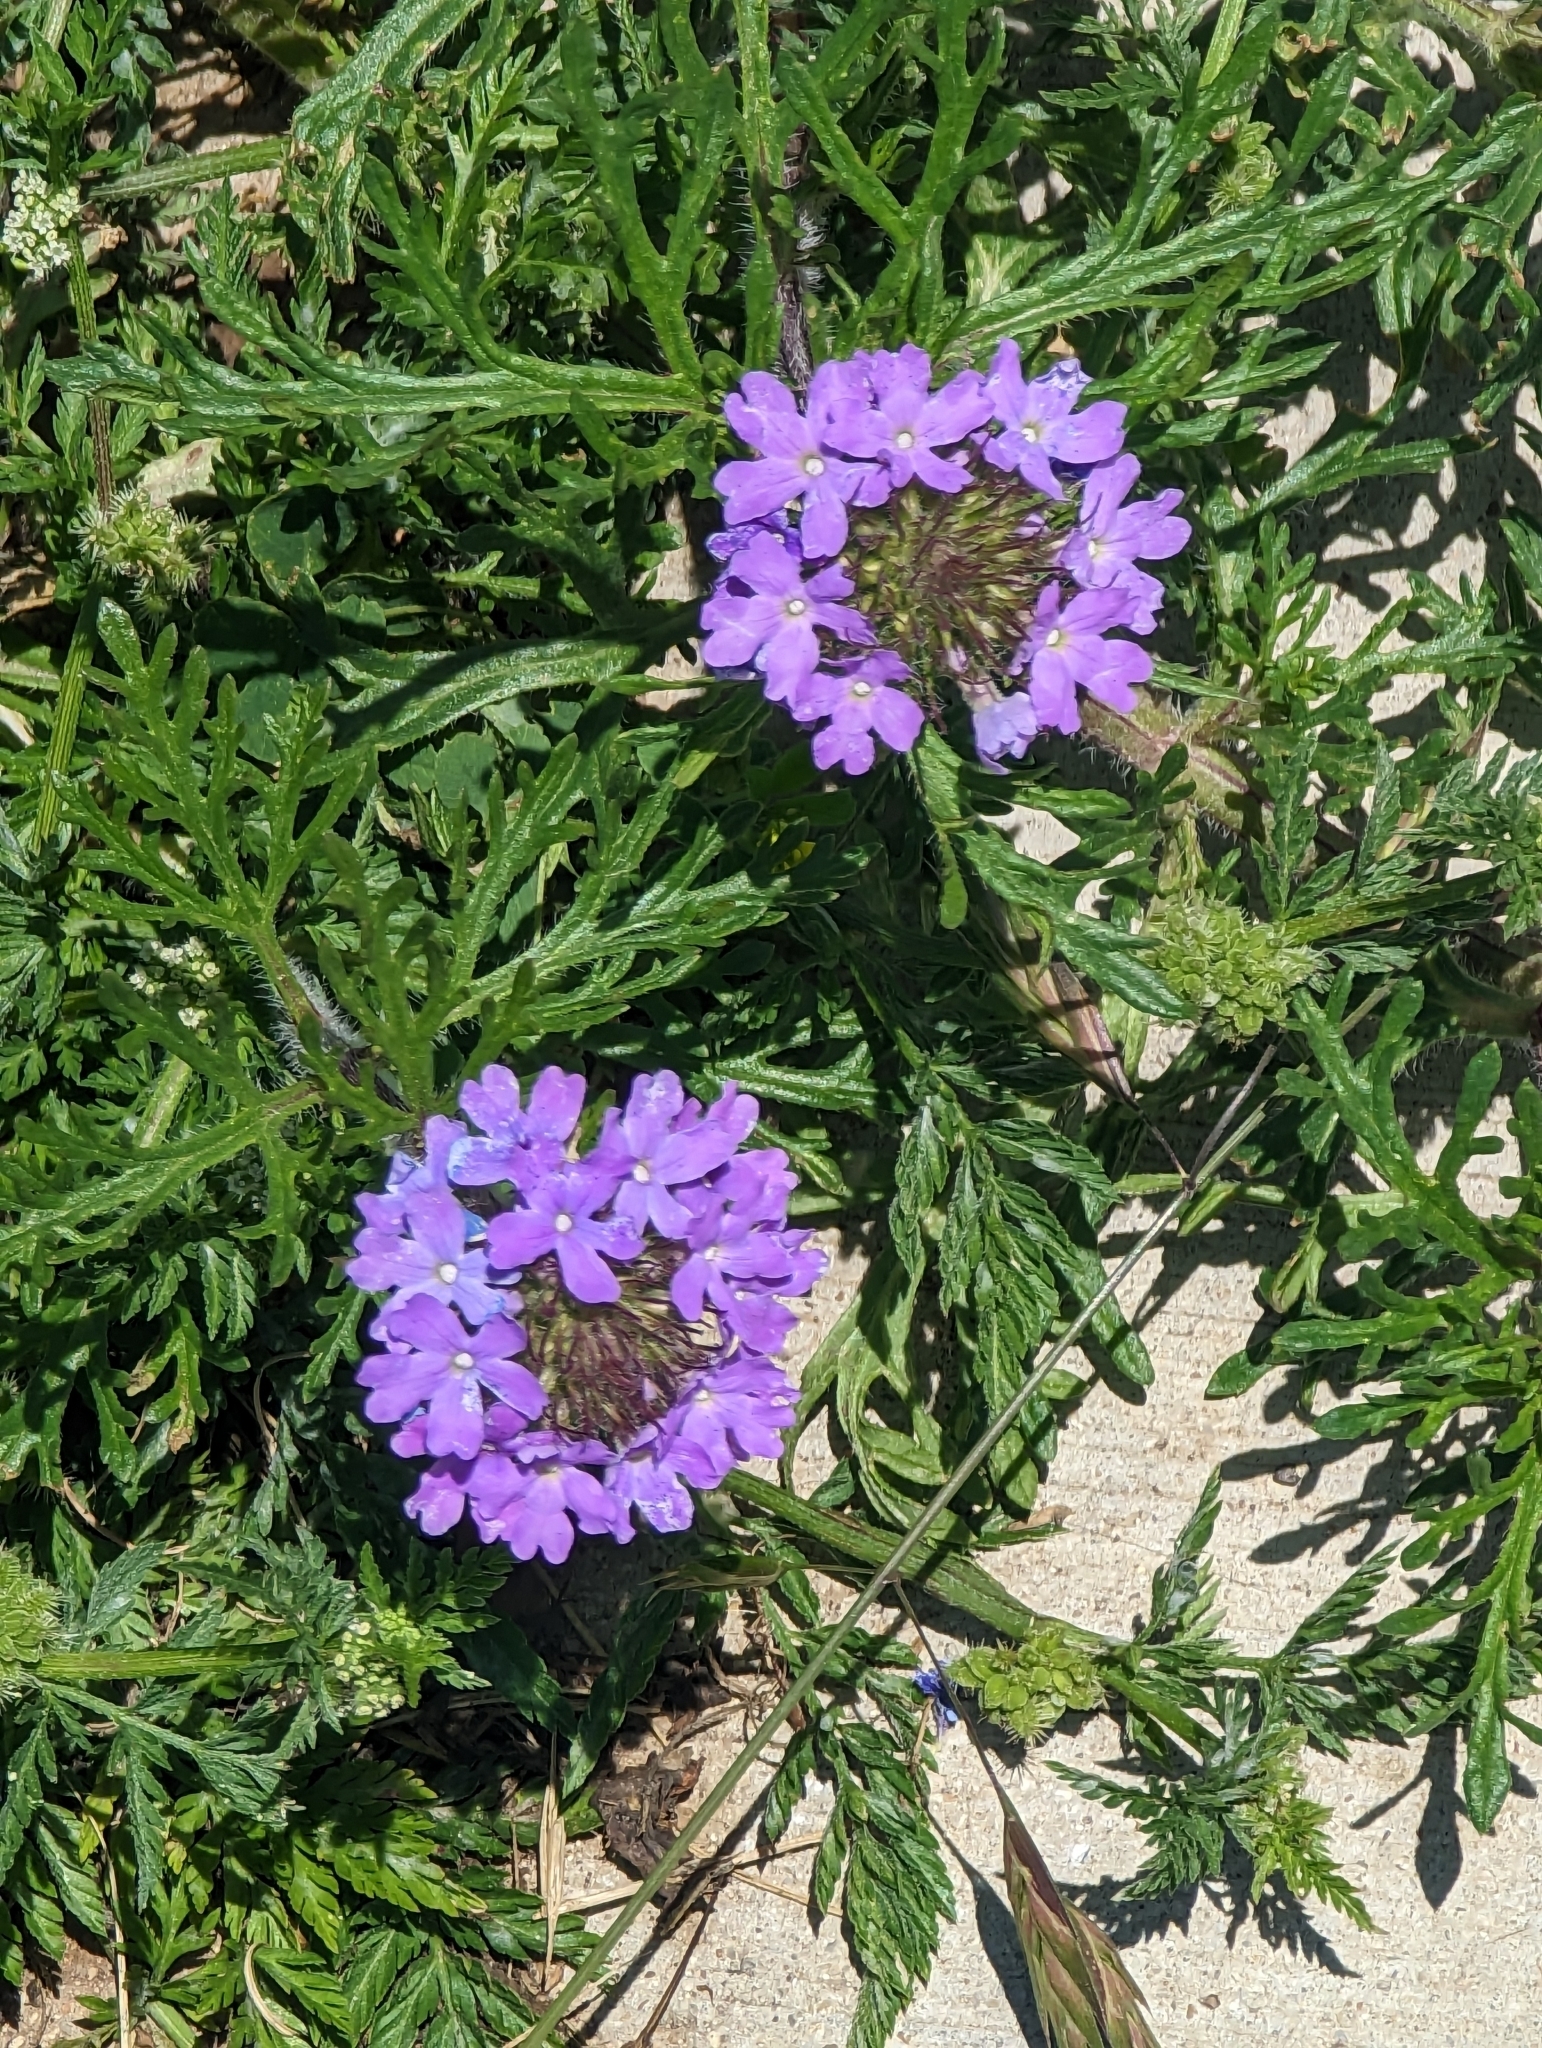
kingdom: Plantae
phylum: Tracheophyta
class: Magnoliopsida
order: Lamiales
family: Verbenaceae
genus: Verbena
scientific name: Verbena bipinnatifida
